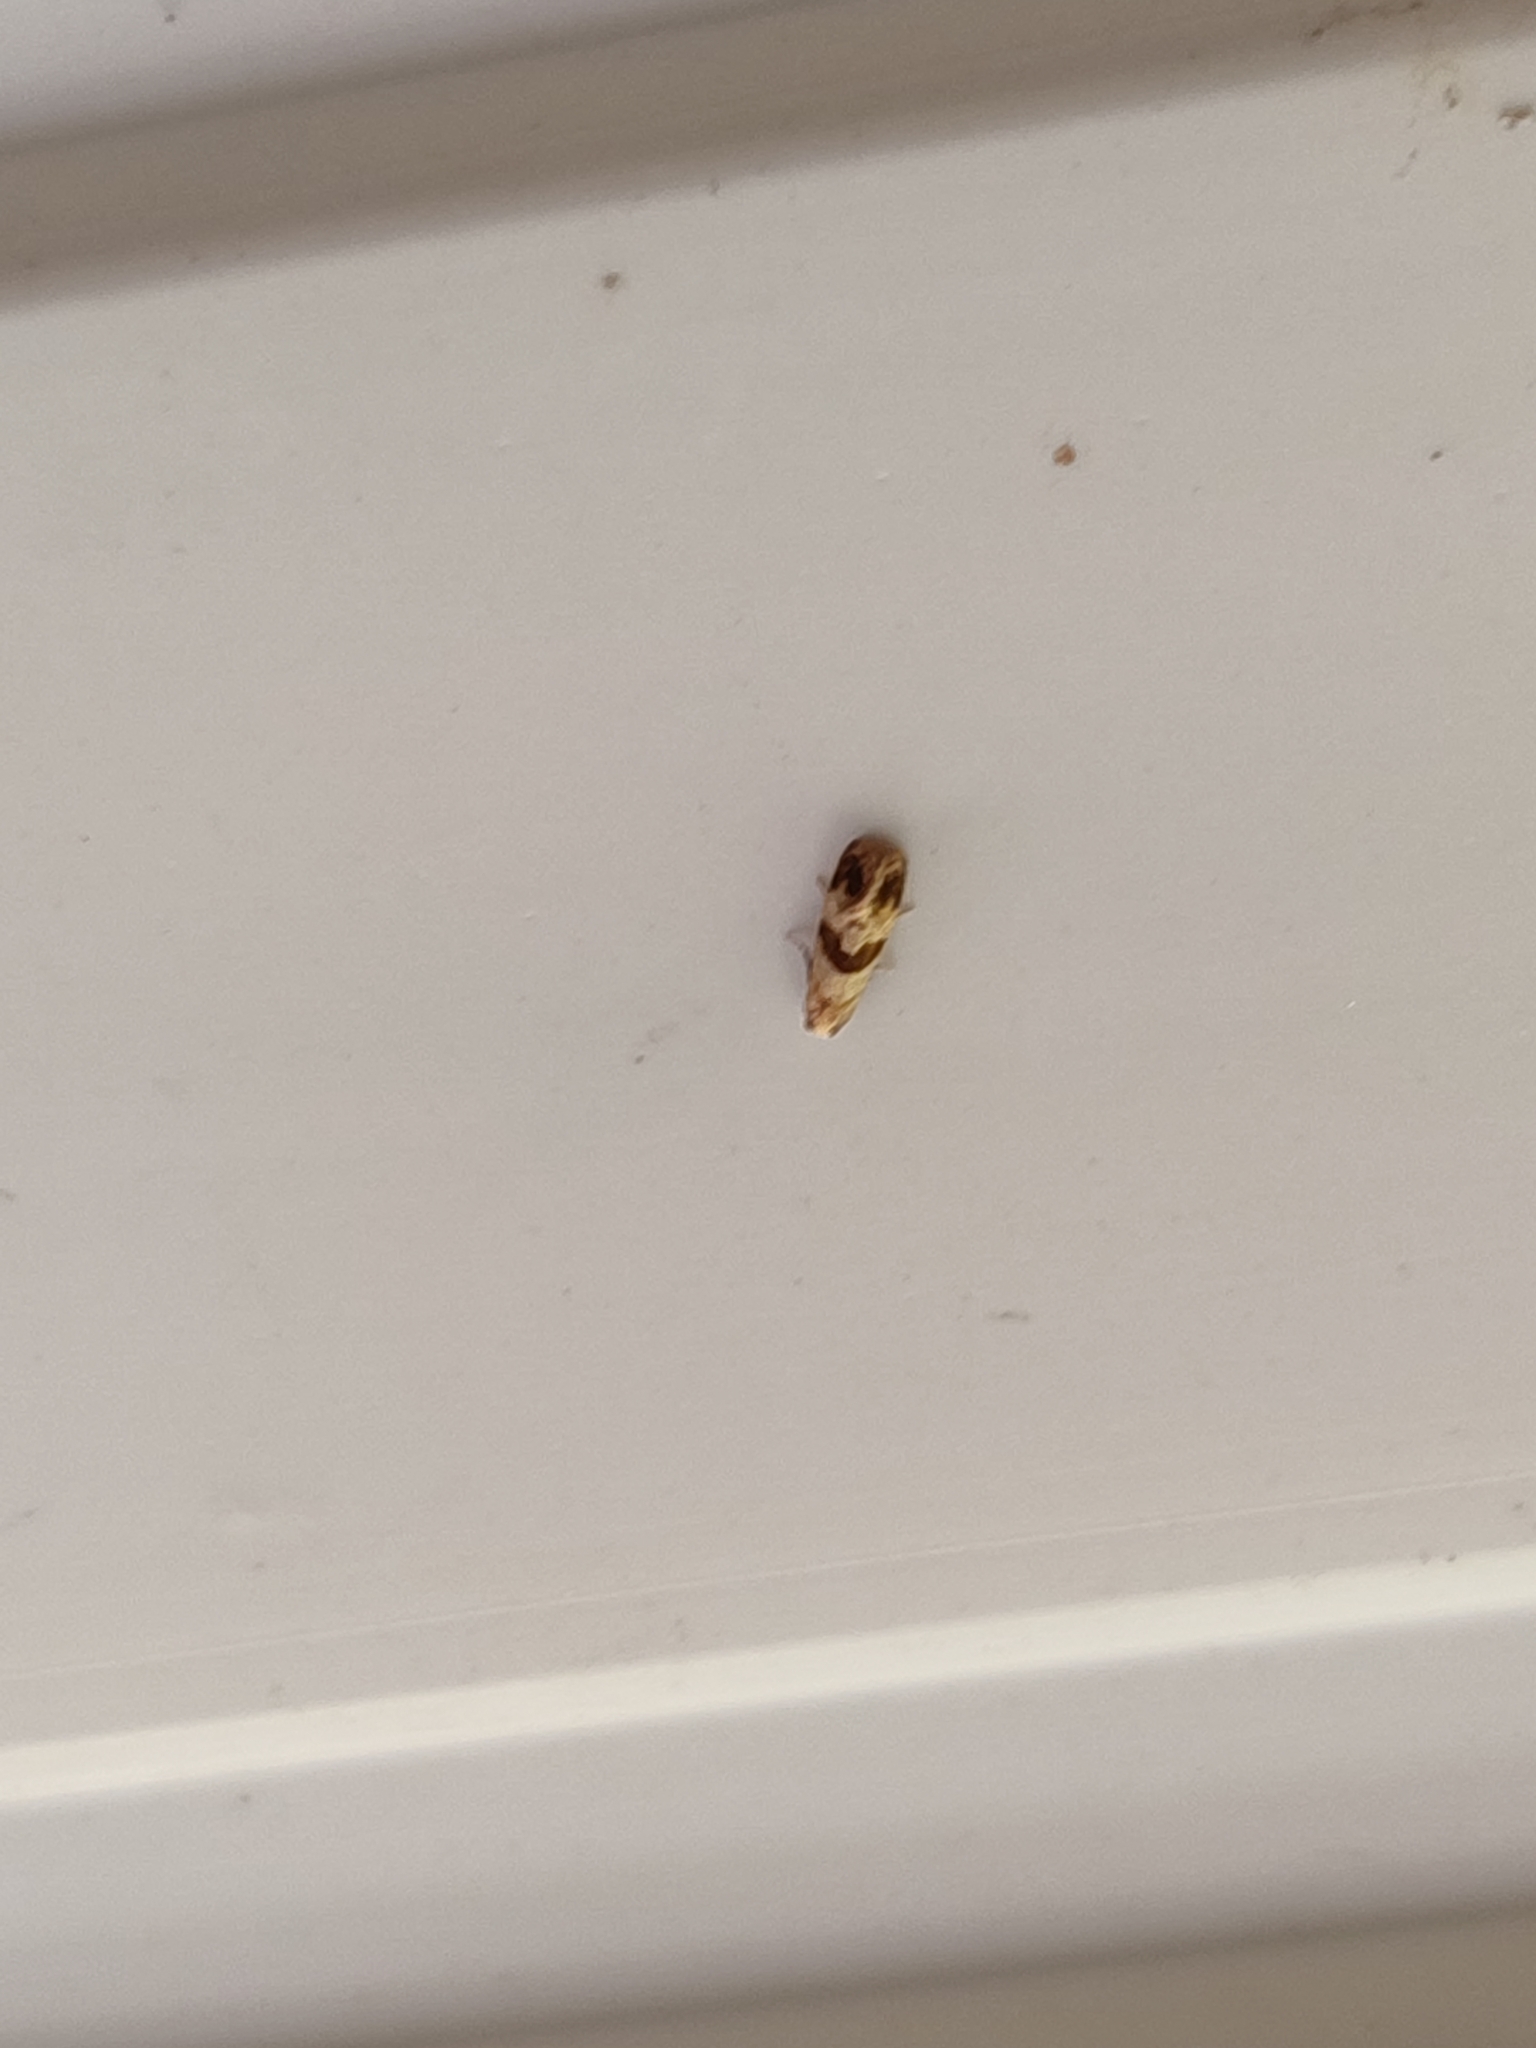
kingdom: Animalia
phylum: Arthropoda
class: Insecta
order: Lepidoptera
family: Tortricidae
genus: Phalonidia
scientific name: Phalonidia contractana
